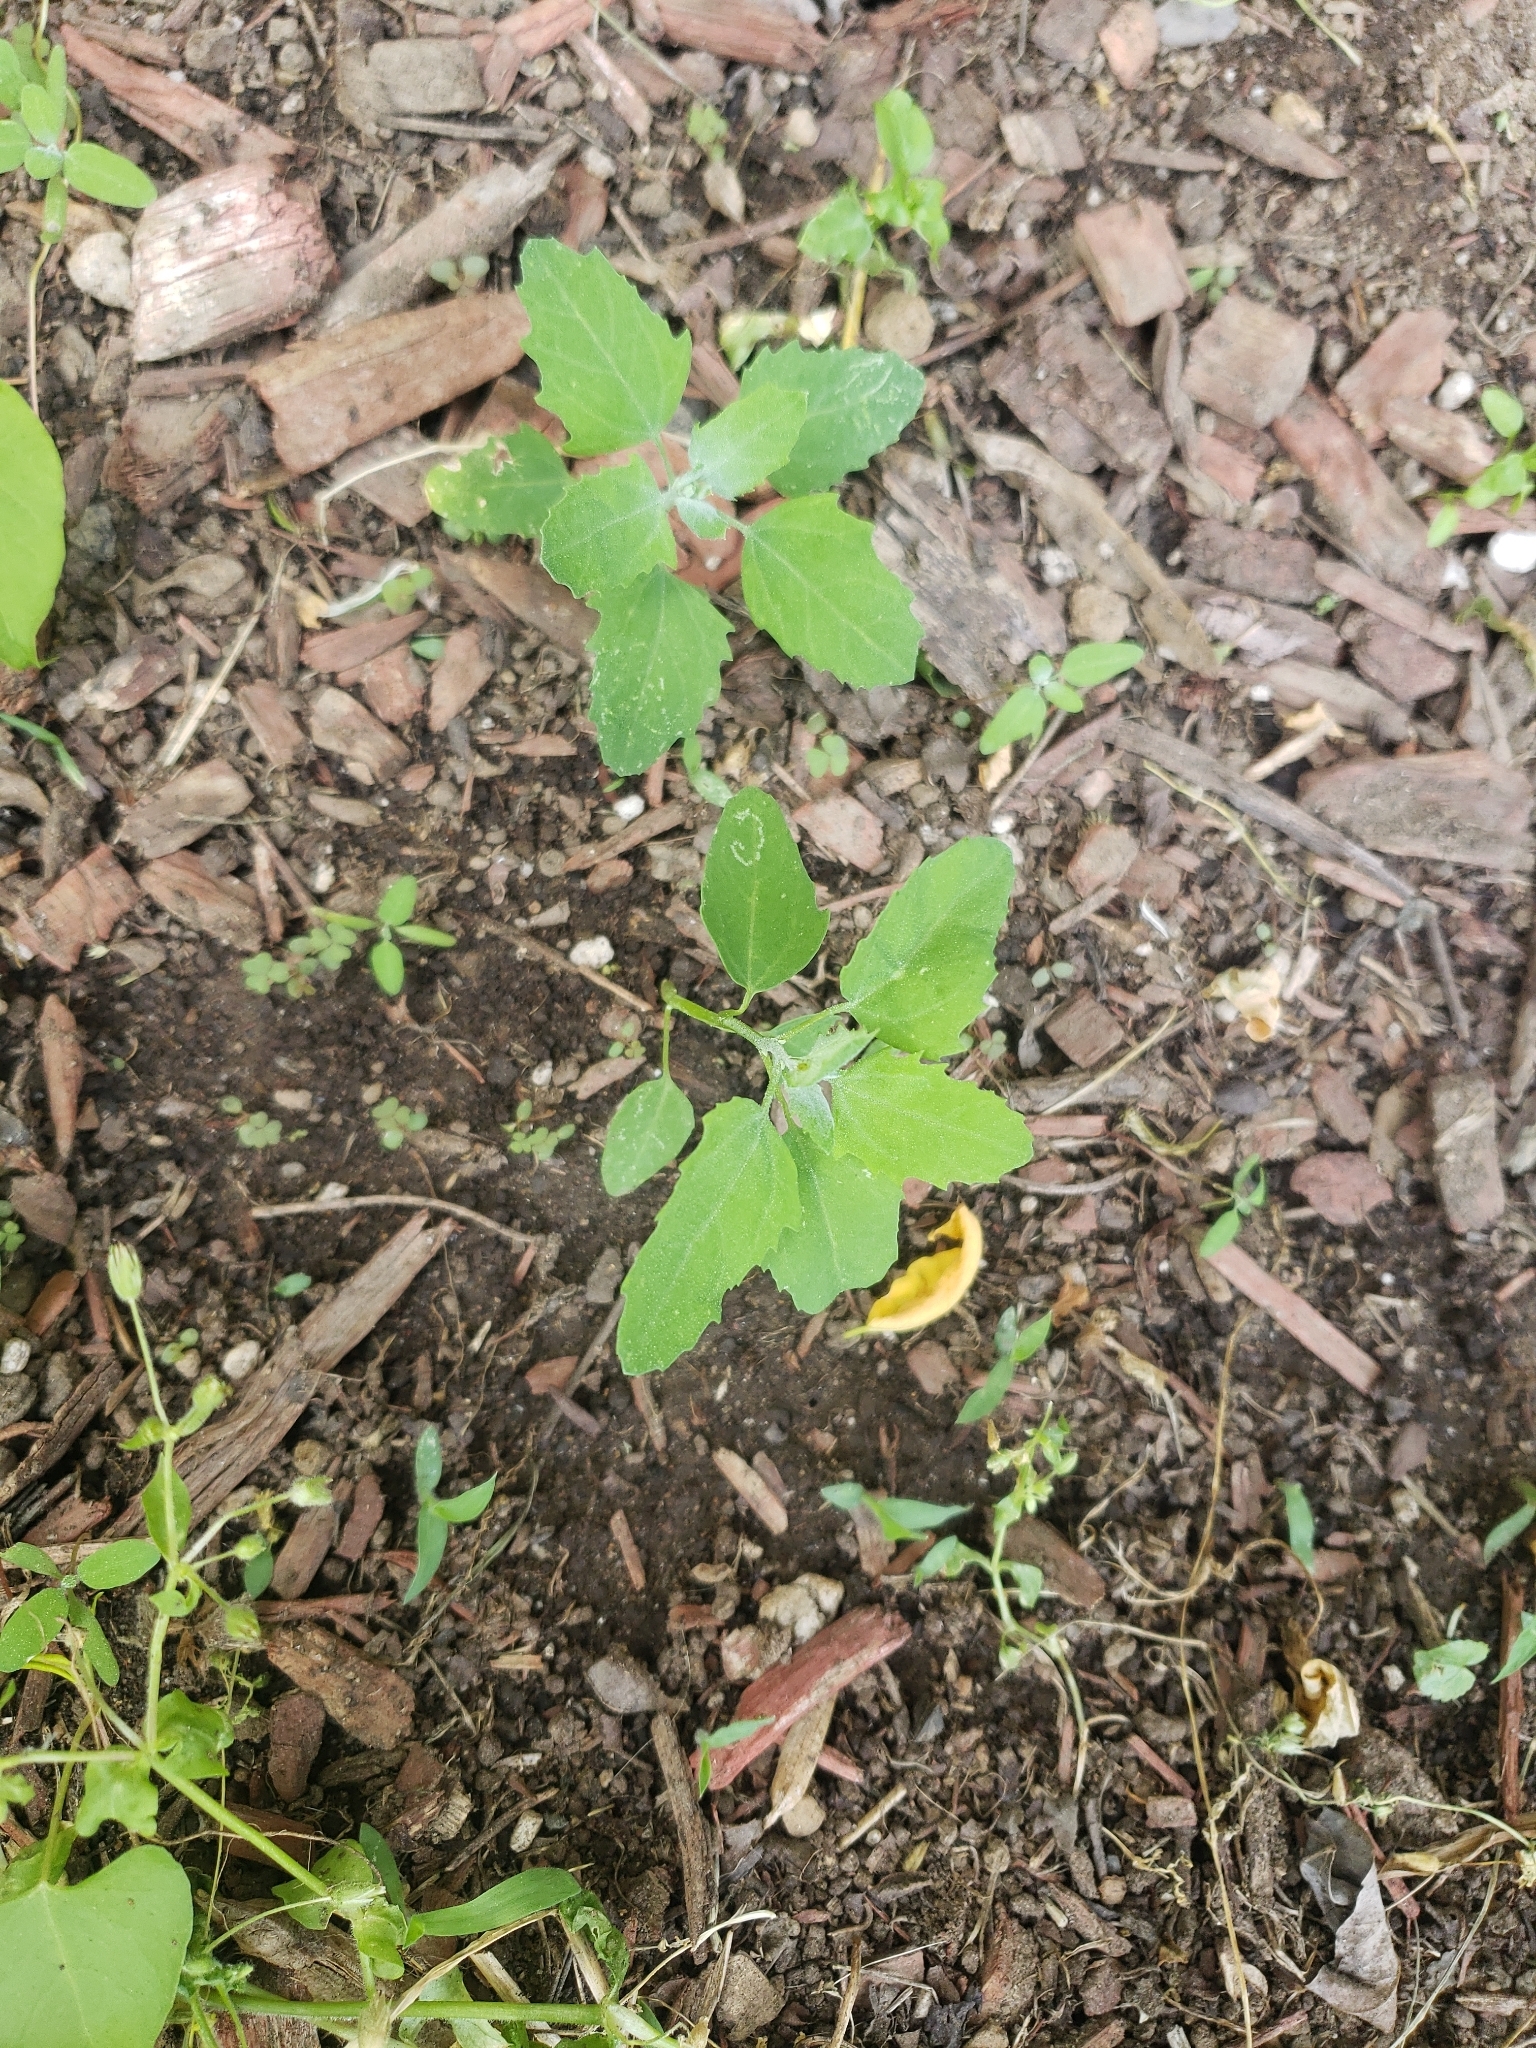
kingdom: Plantae
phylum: Tracheophyta
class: Magnoliopsida
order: Caryophyllales
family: Amaranthaceae
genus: Chenopodium
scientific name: Chenopodium album
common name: Fat-hen
